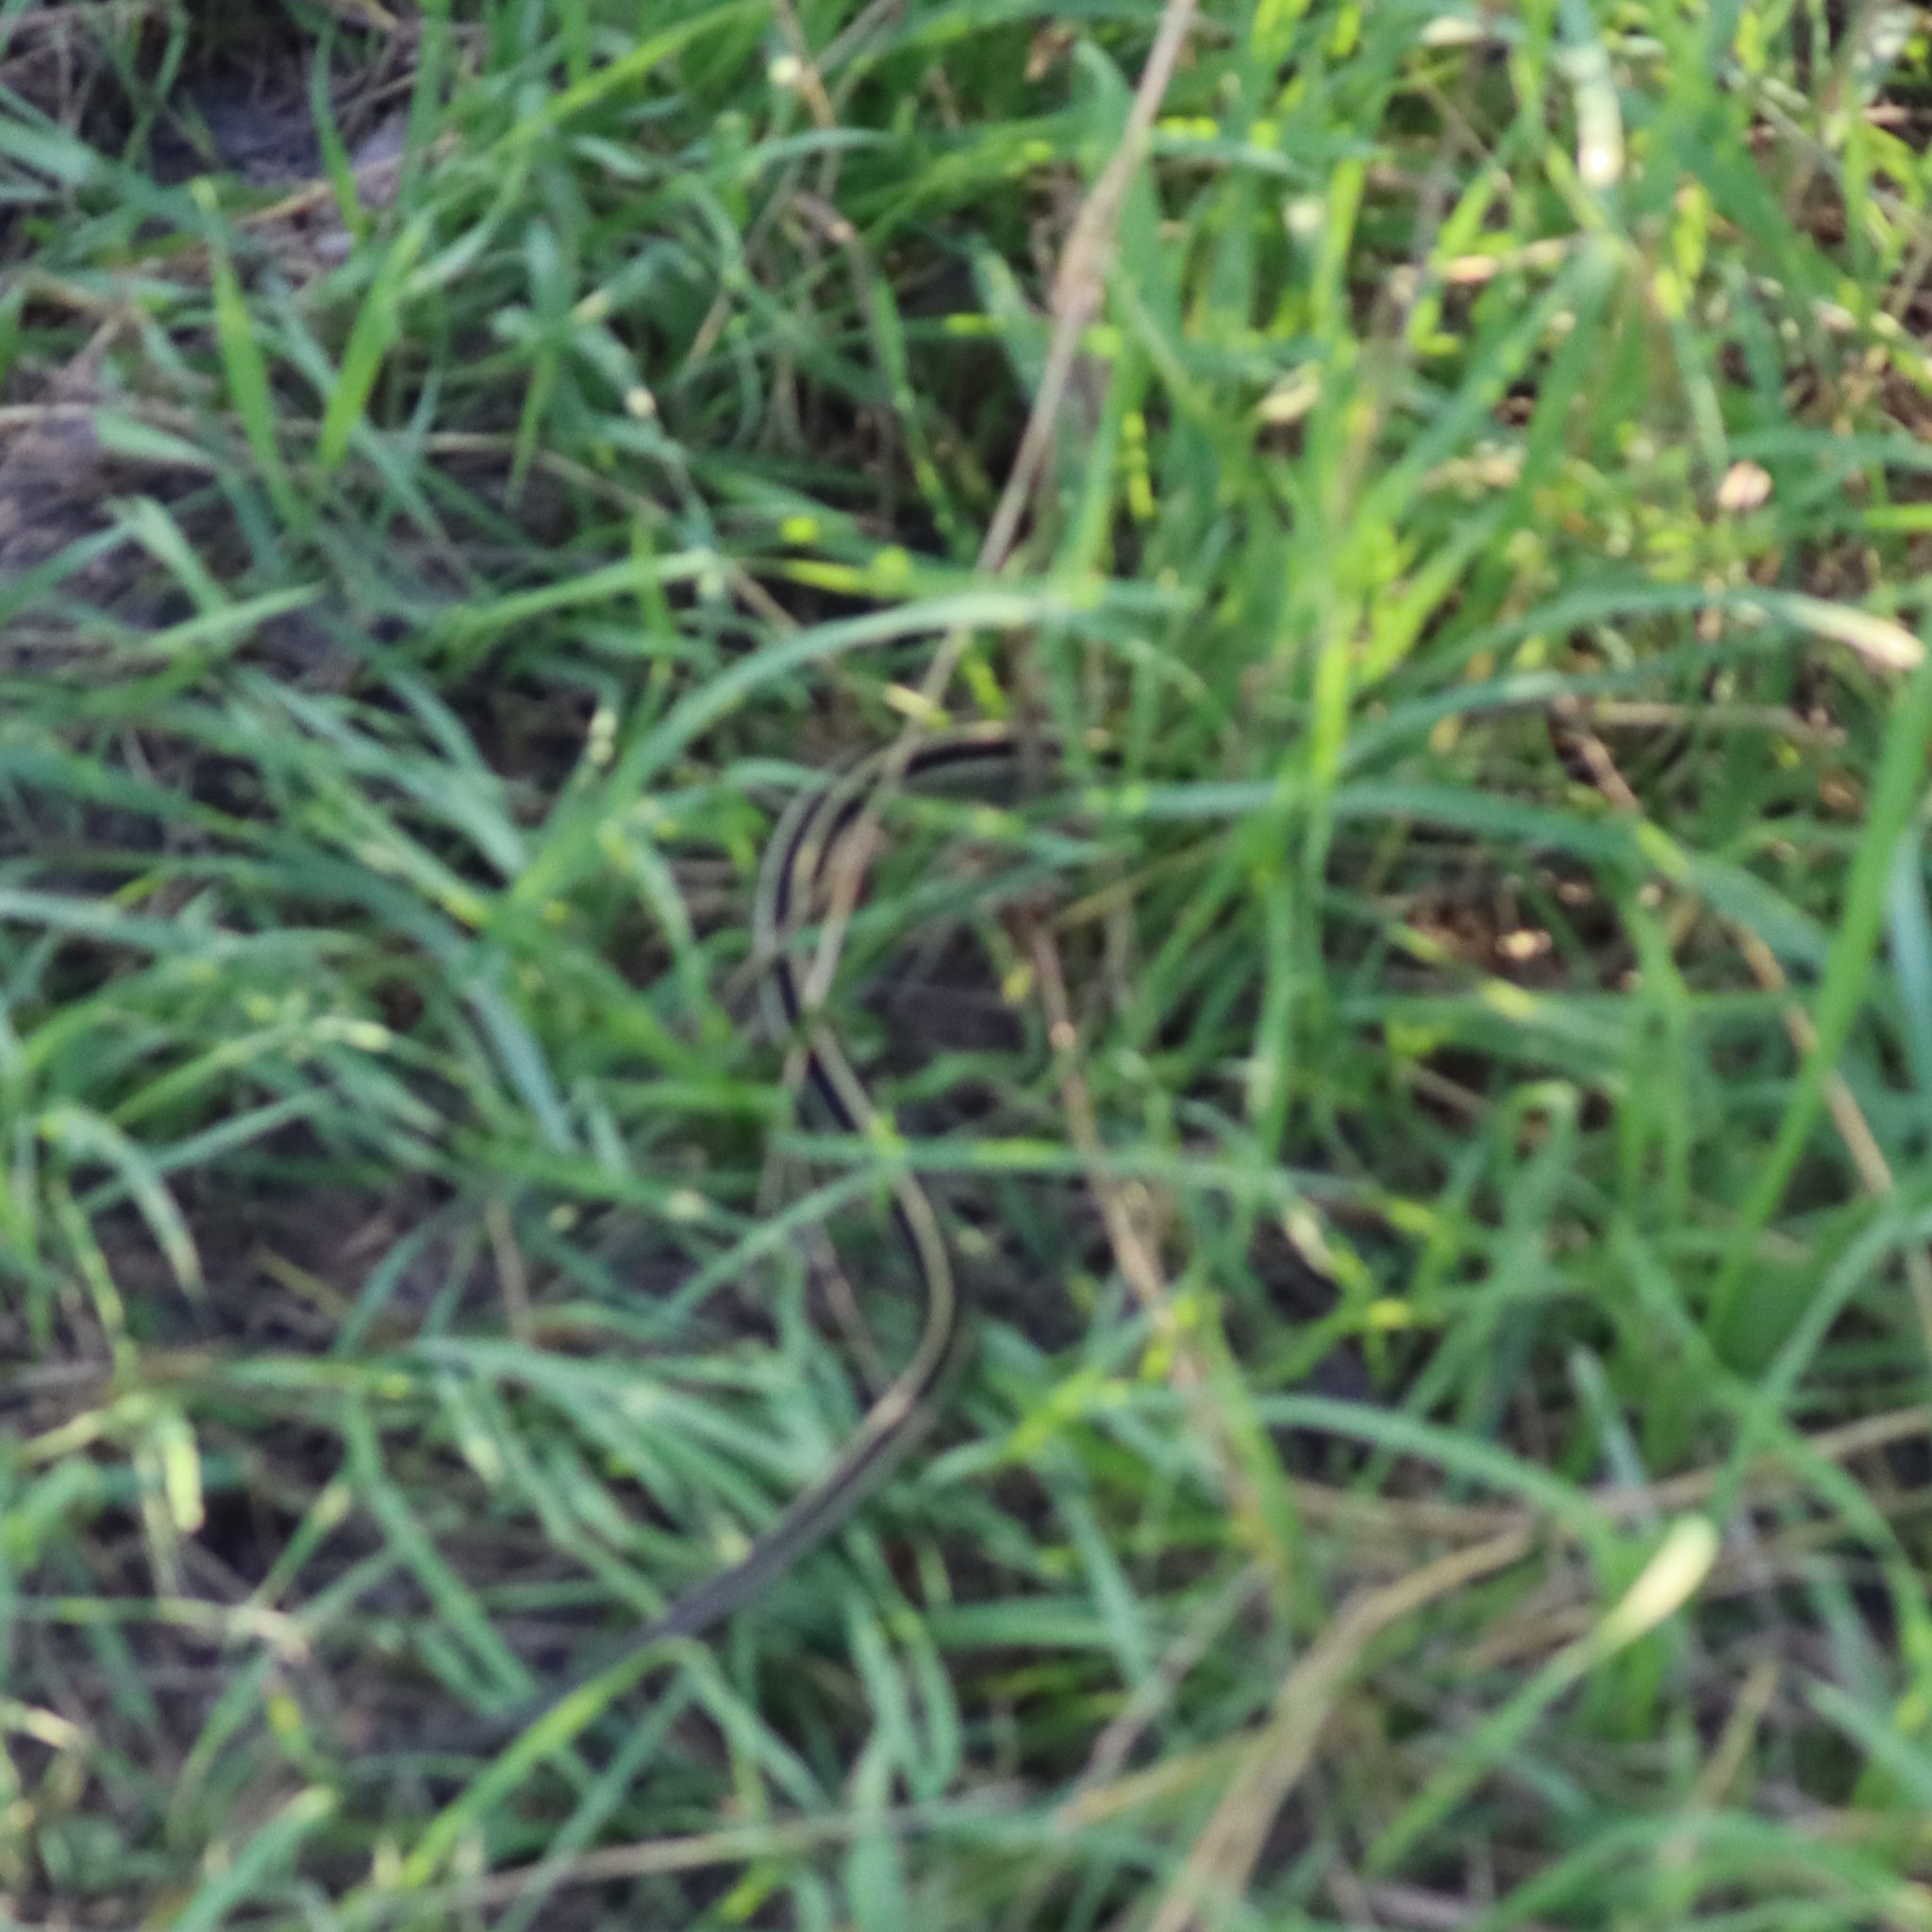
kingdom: Animalia
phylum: Chordata
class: Squamata
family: Colubridae
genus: Thamnophis
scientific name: Thamnophis radix
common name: Plains garter snake
